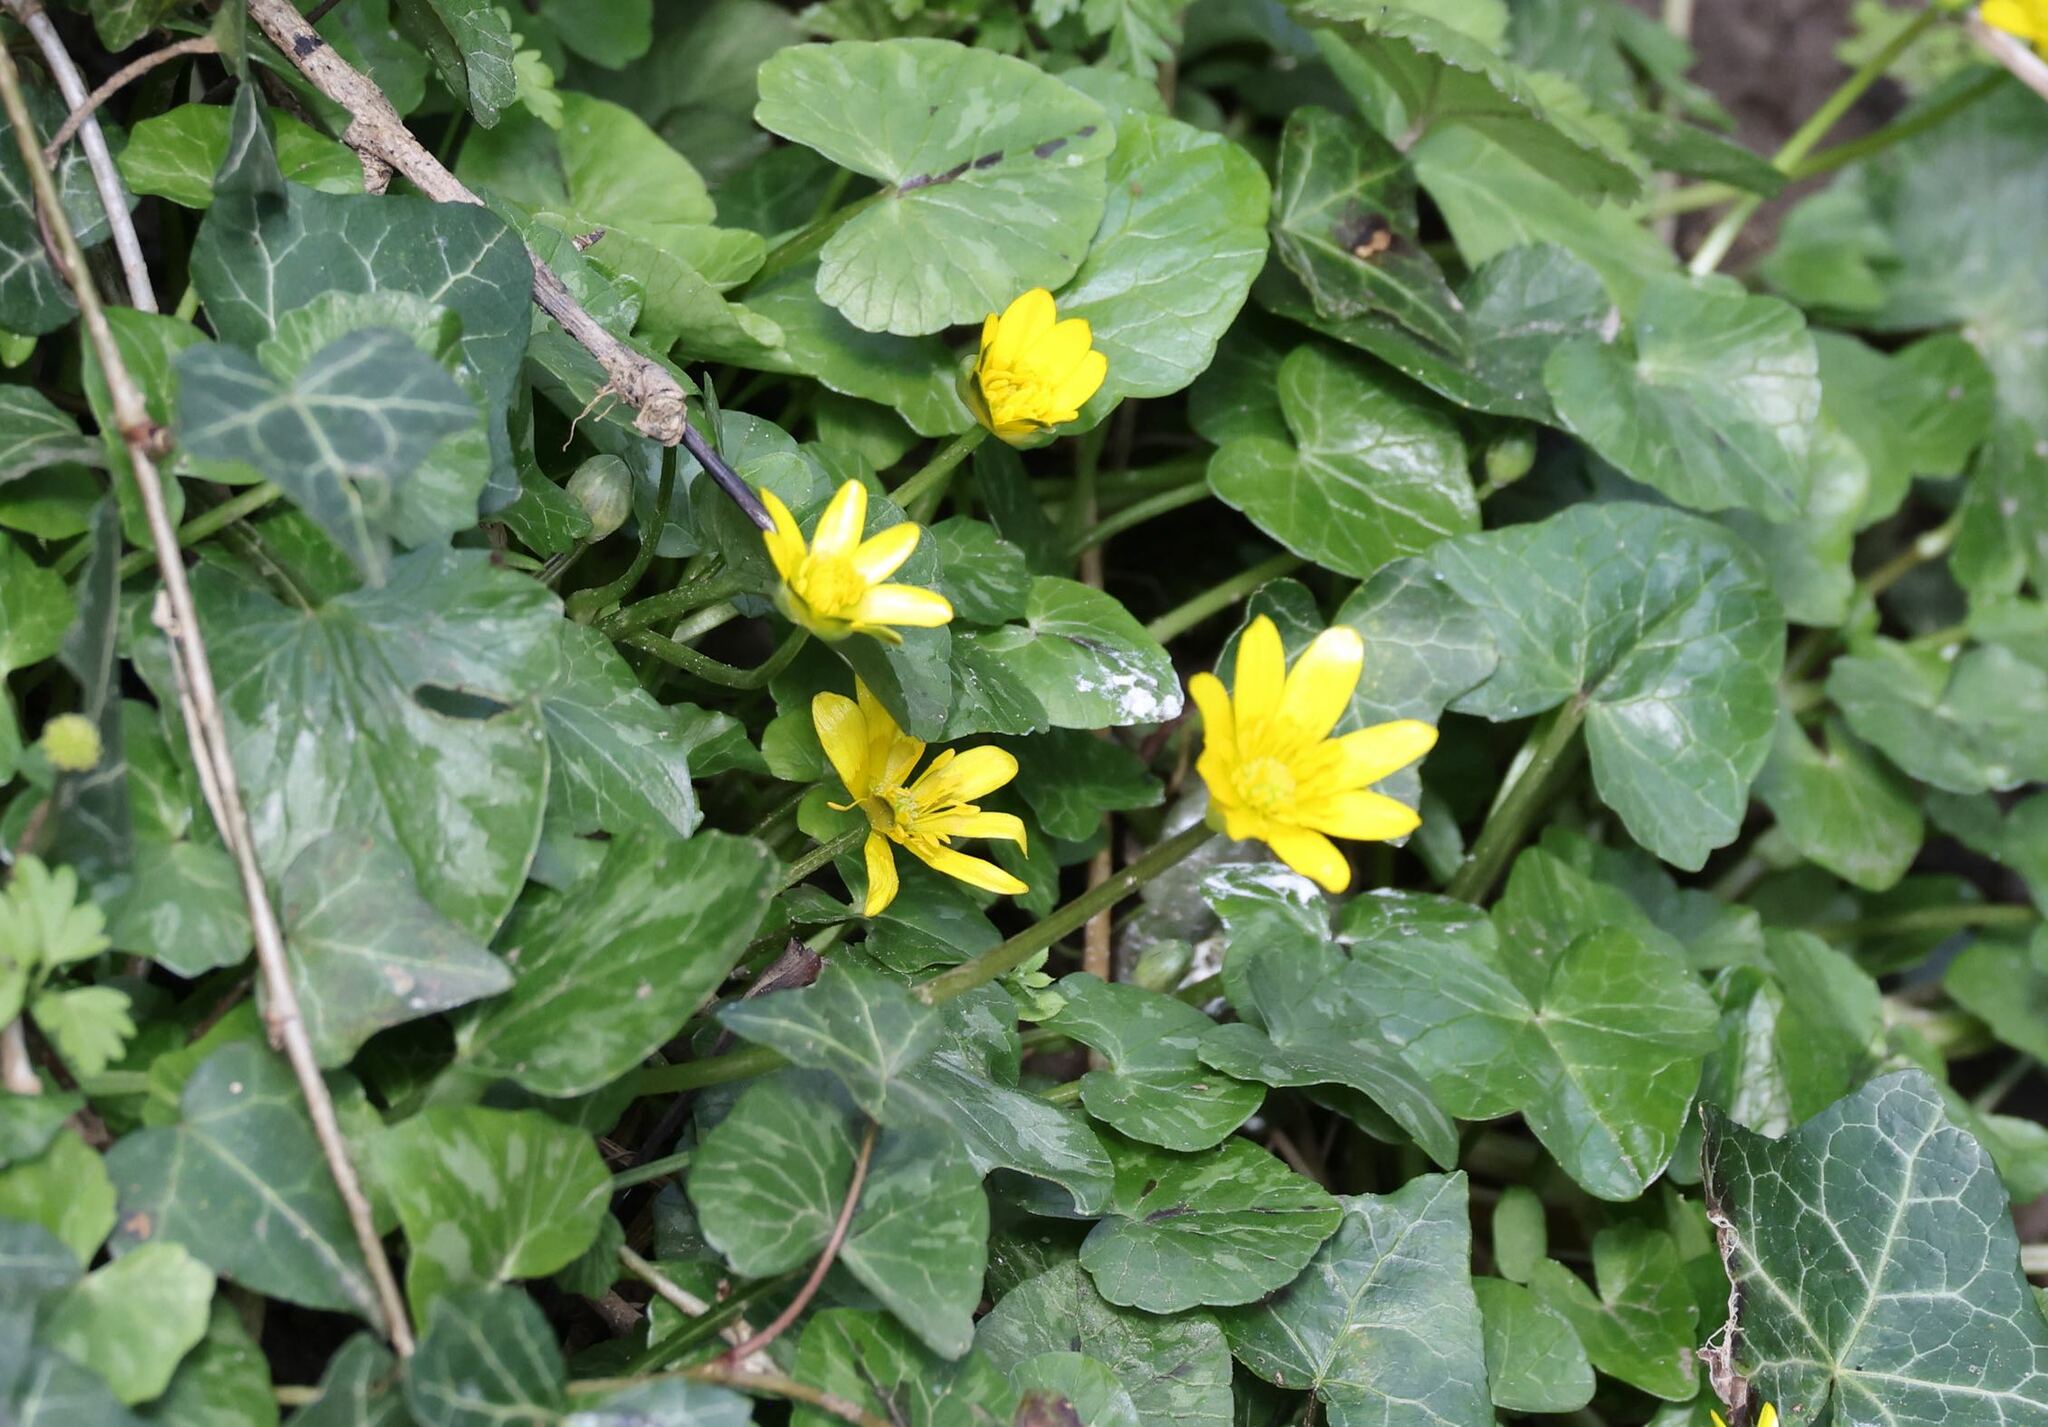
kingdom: Plantae
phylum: Tracheophyta
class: Magnoliopsida
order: Ranunculales
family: Ranunculaceae
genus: Ficaria
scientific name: Ficaria verna
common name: Lesser celandine
